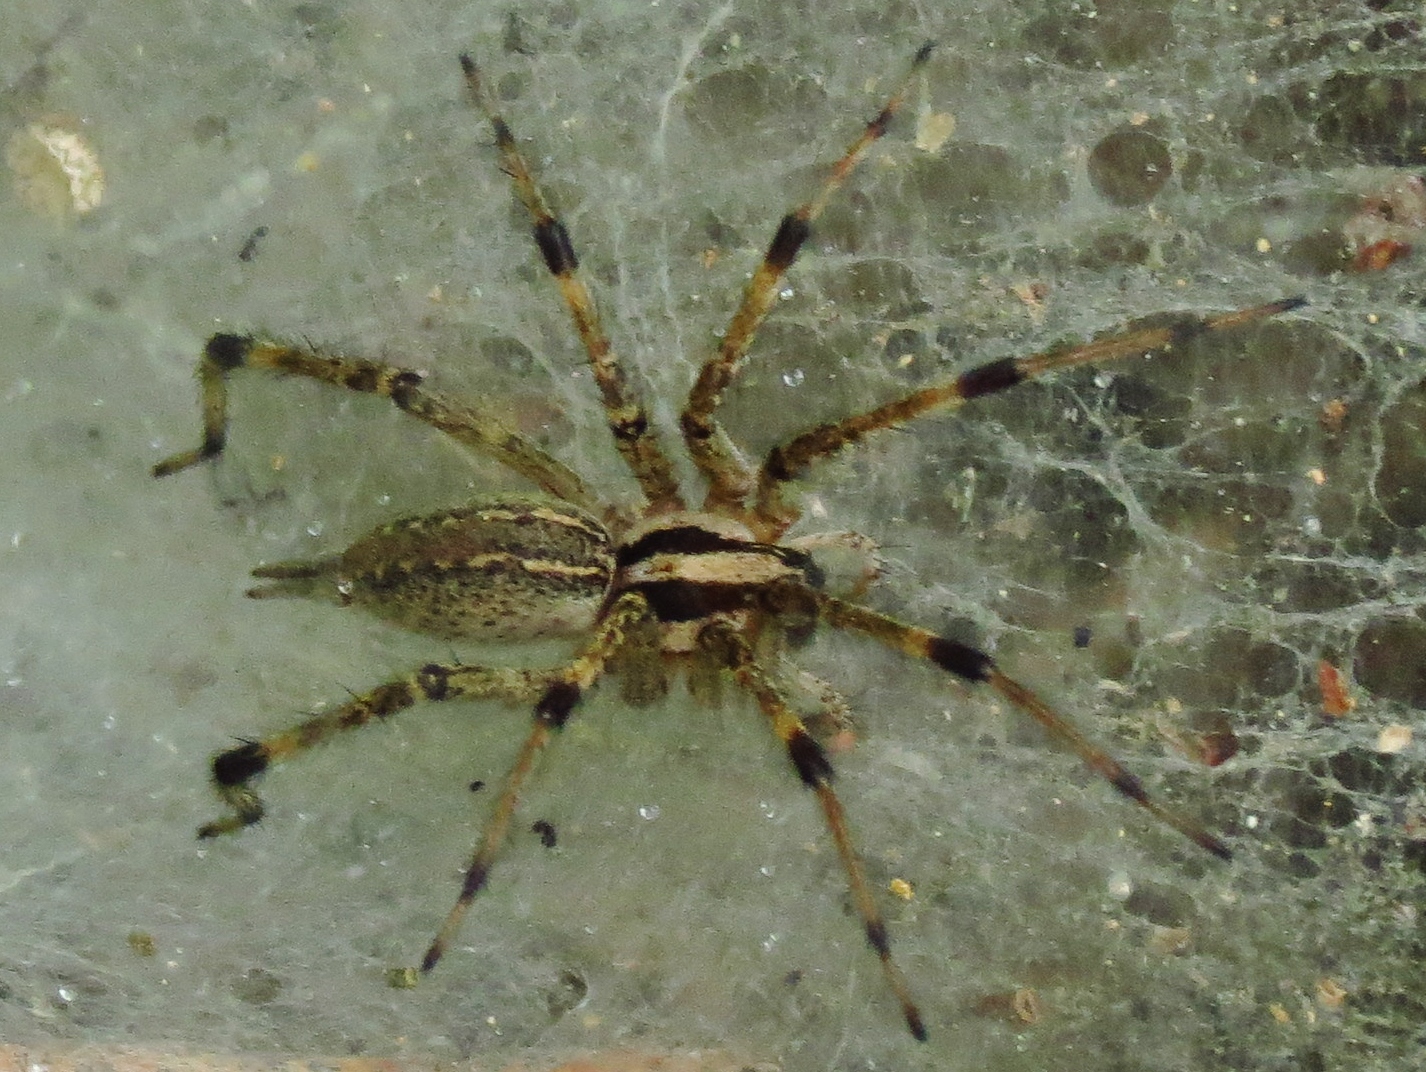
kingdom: Animalia
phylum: Arthropoda
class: Arachnida
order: Araneae
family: Agelenidae
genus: Agelenopsis
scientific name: Agelenopsis
